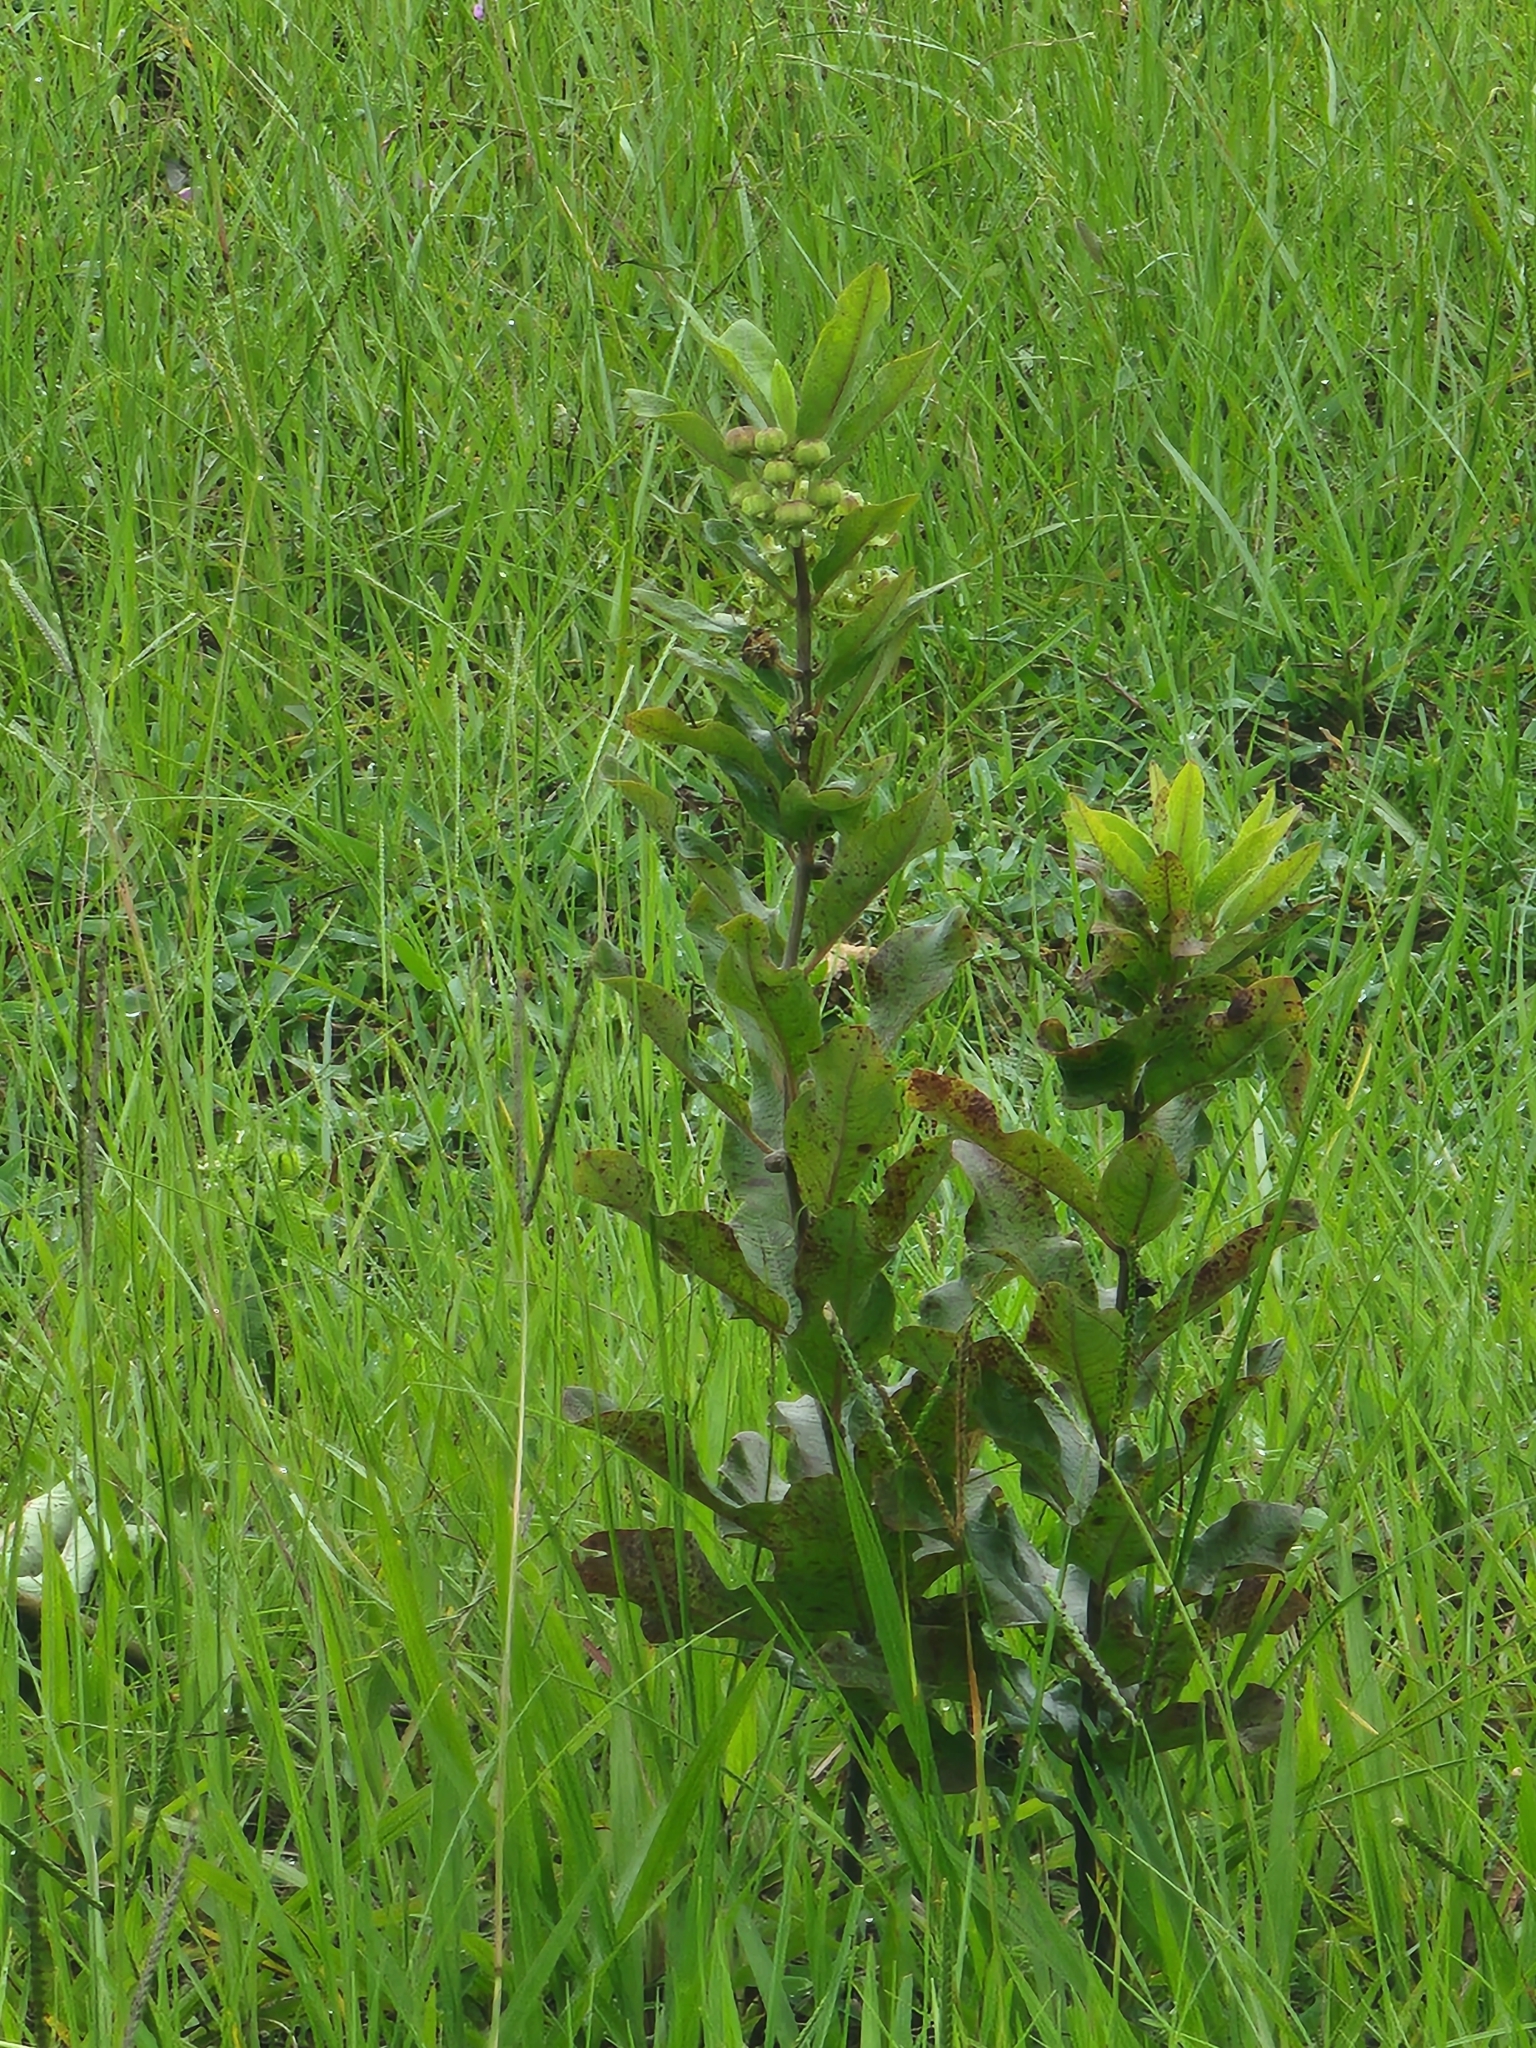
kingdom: Plantae
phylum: Tracheophyta
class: Magnoliopsida
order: Gentianales
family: Apocynaceae
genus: Asclepias
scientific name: Asclepias tomentosa
